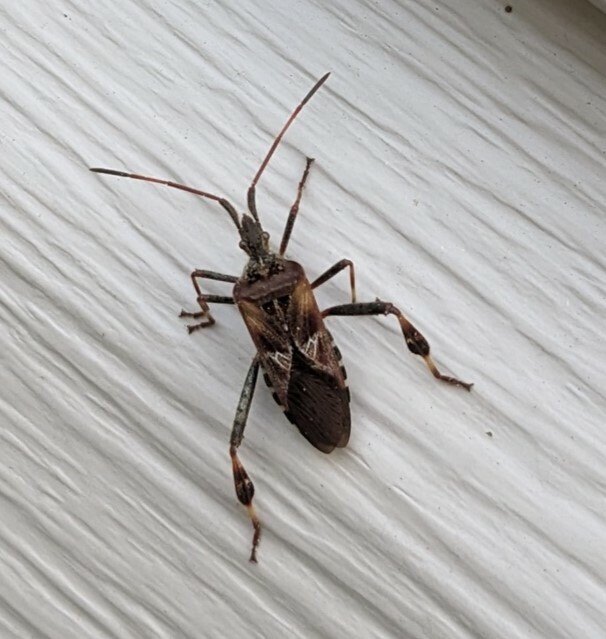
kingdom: Animalia
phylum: Arthropoda
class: Insecta
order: Hemiptera
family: Coreidae
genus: Leptoglossus
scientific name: Leptoglossus occidentalis
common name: Western conifer-seed bug
